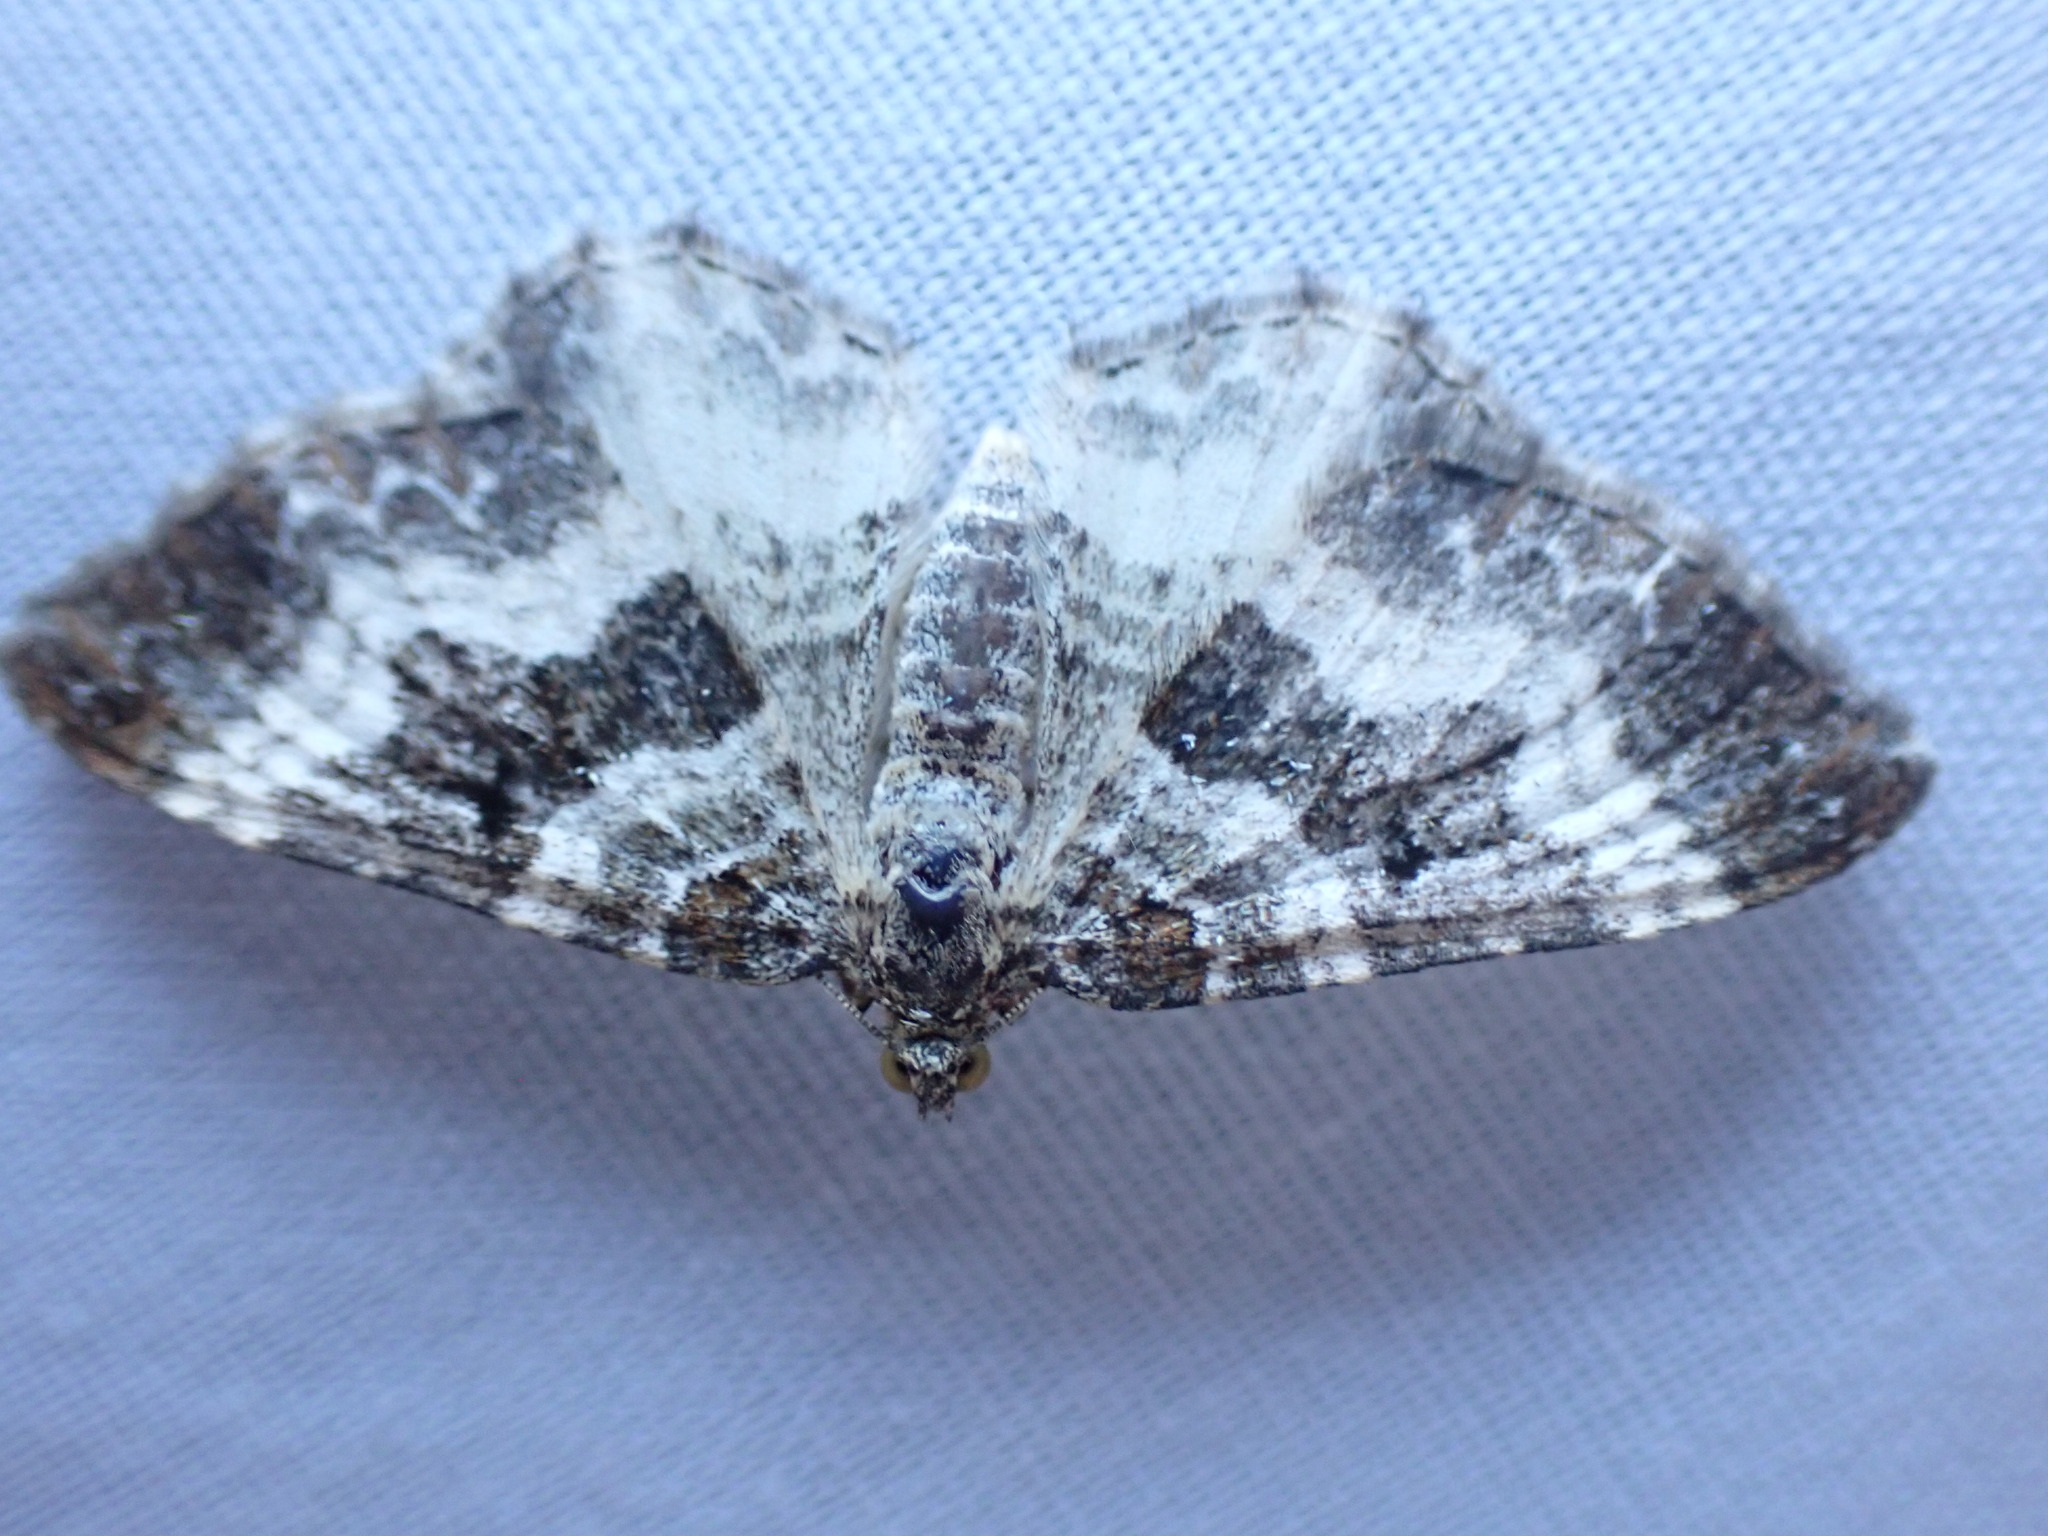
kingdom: Animalia
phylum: Arthropoda
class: Insecta
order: Lepidoptera
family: Geometridae
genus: Epirrhoe
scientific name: Epirrhoe alternata
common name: Common carpet
